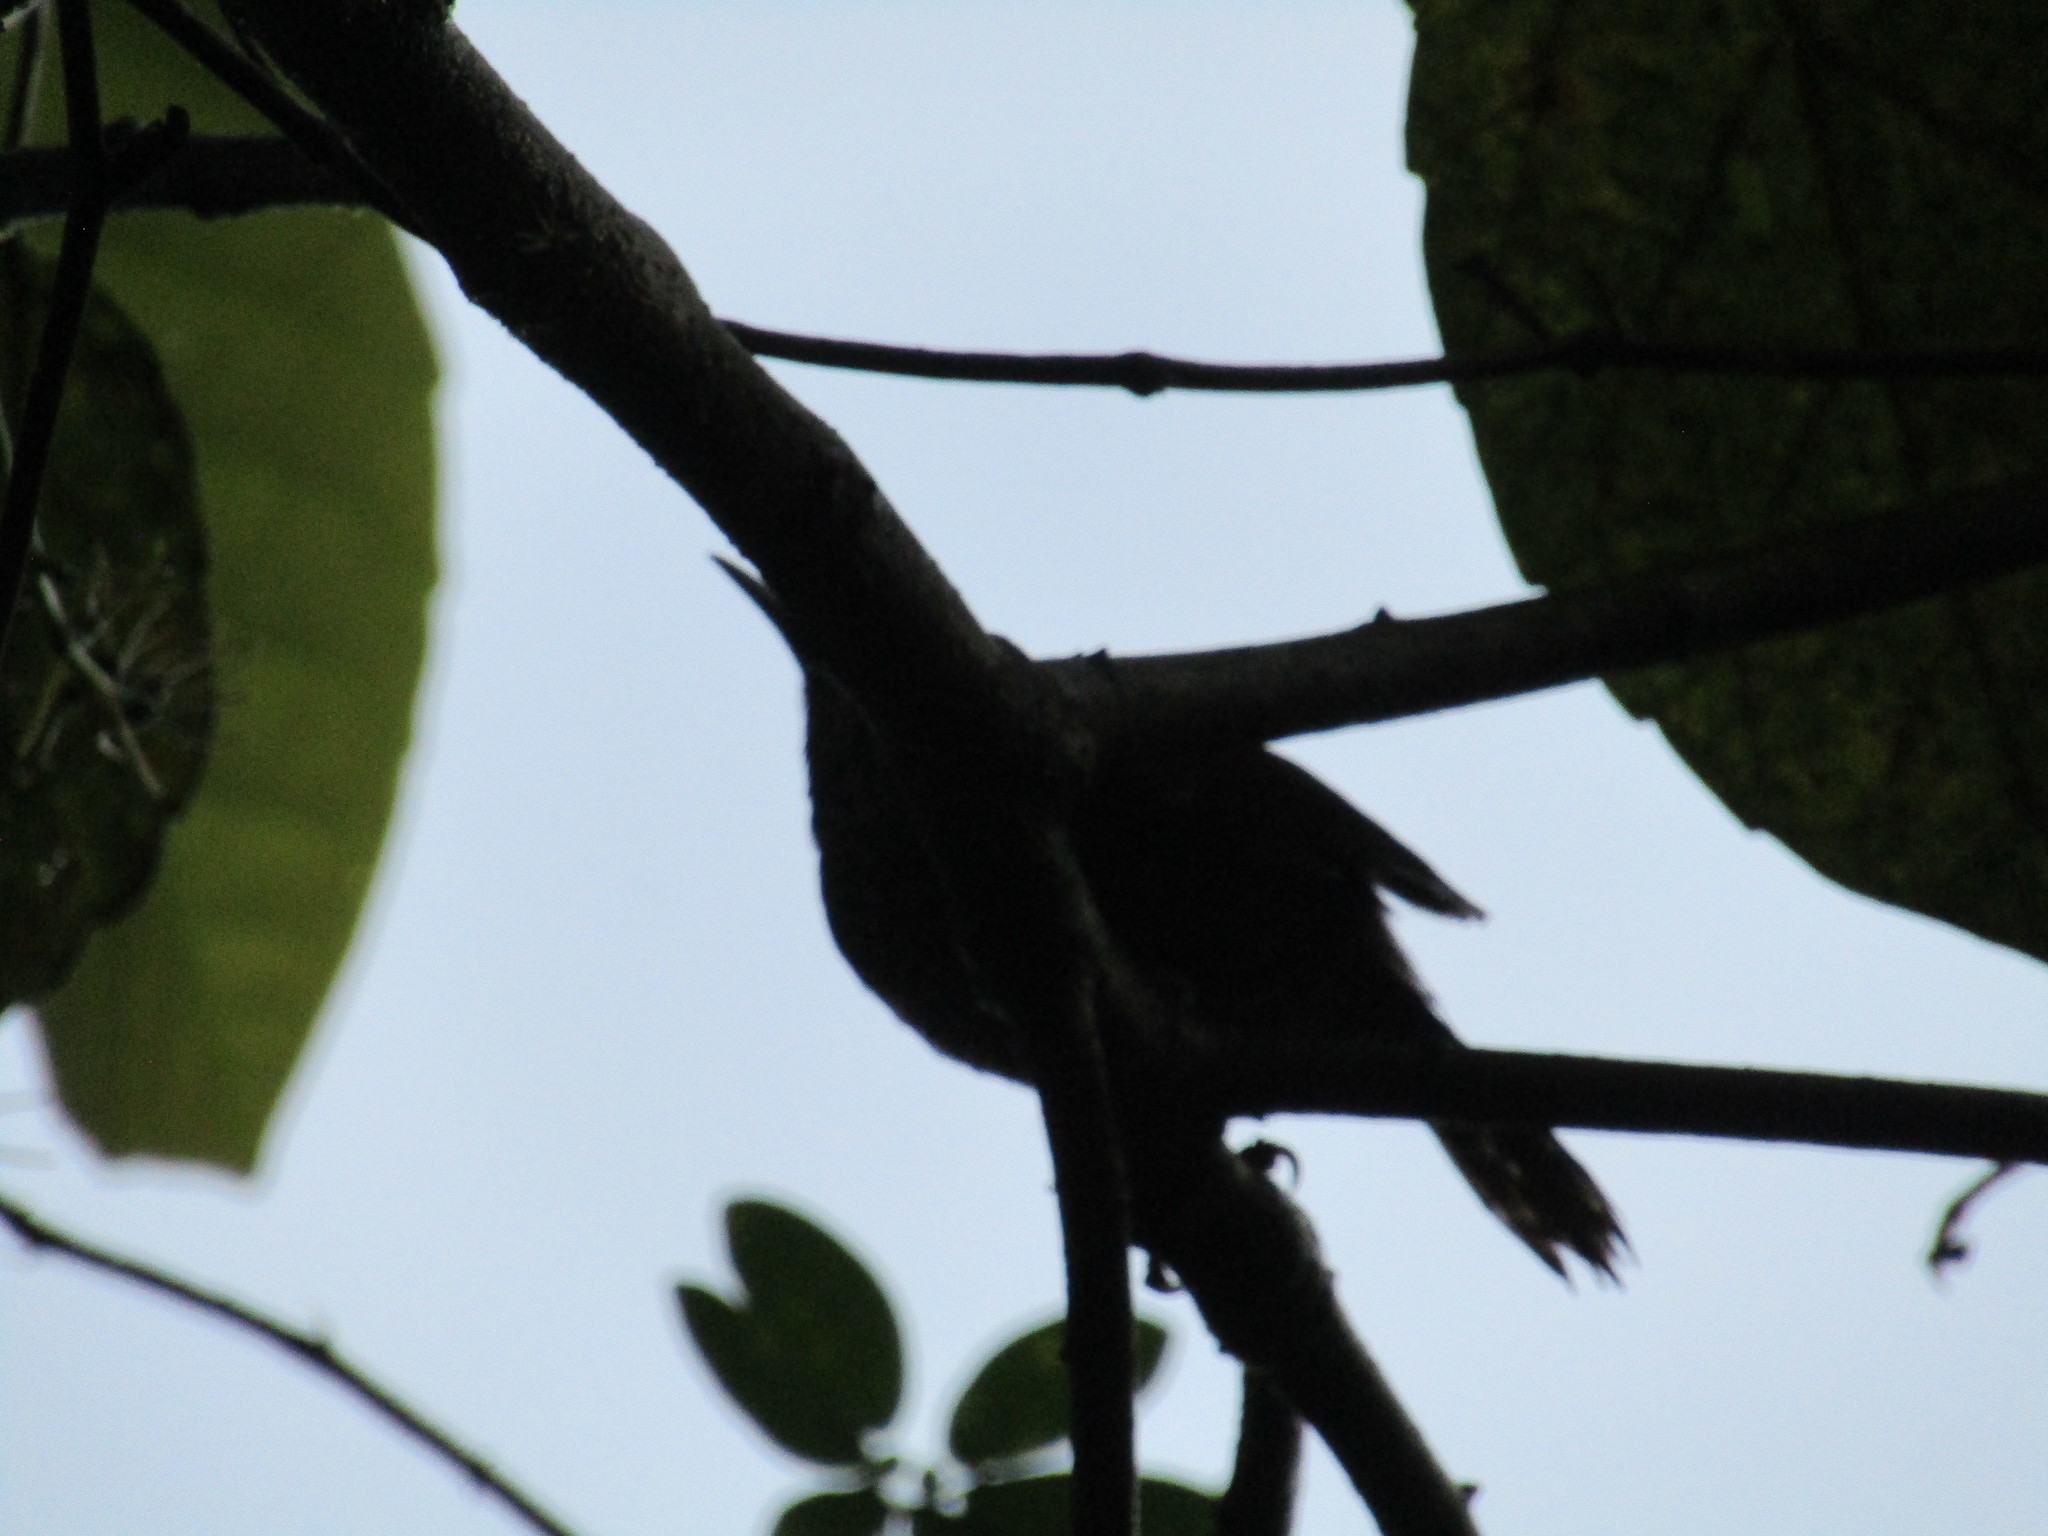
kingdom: Animalia
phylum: Chordata
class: Aves
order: Passeriformes
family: Troglodytidae
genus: Pheugopedius
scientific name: Pheugopedius maculipectus
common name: Spot-breasted wren
